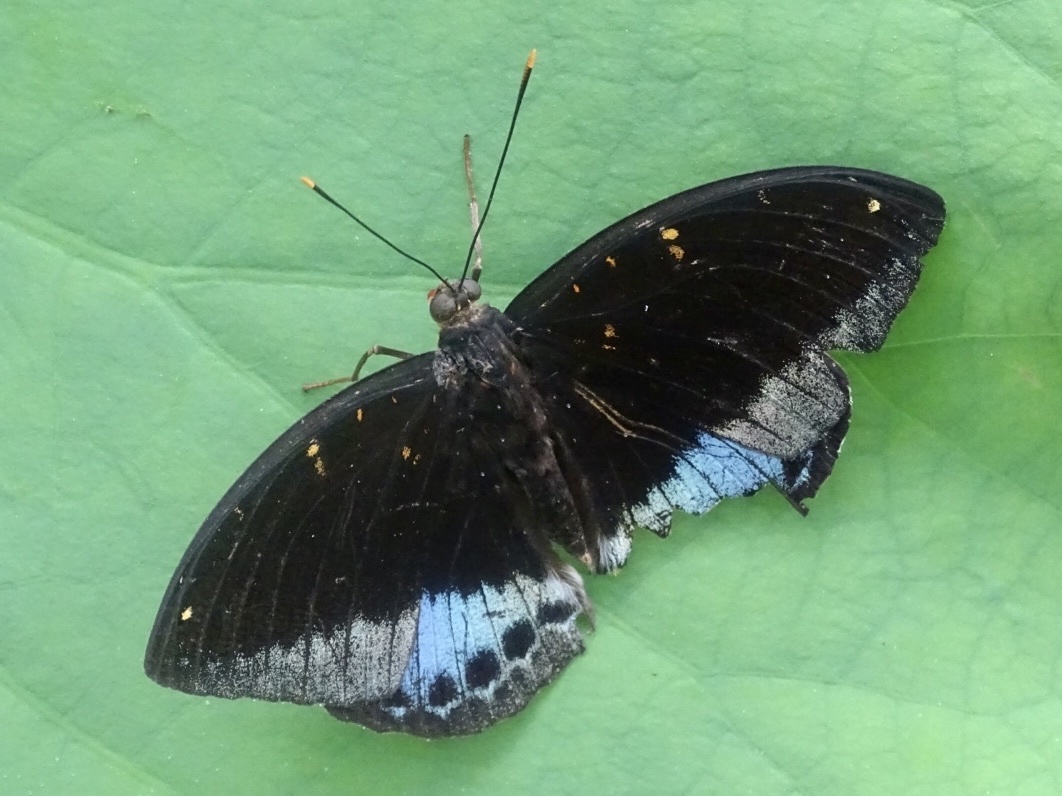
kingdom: Animalia
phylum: Arthropoda
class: Insecta
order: Lepidoptera
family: Nymphalidae
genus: Lexias
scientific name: Lexias pardalis
